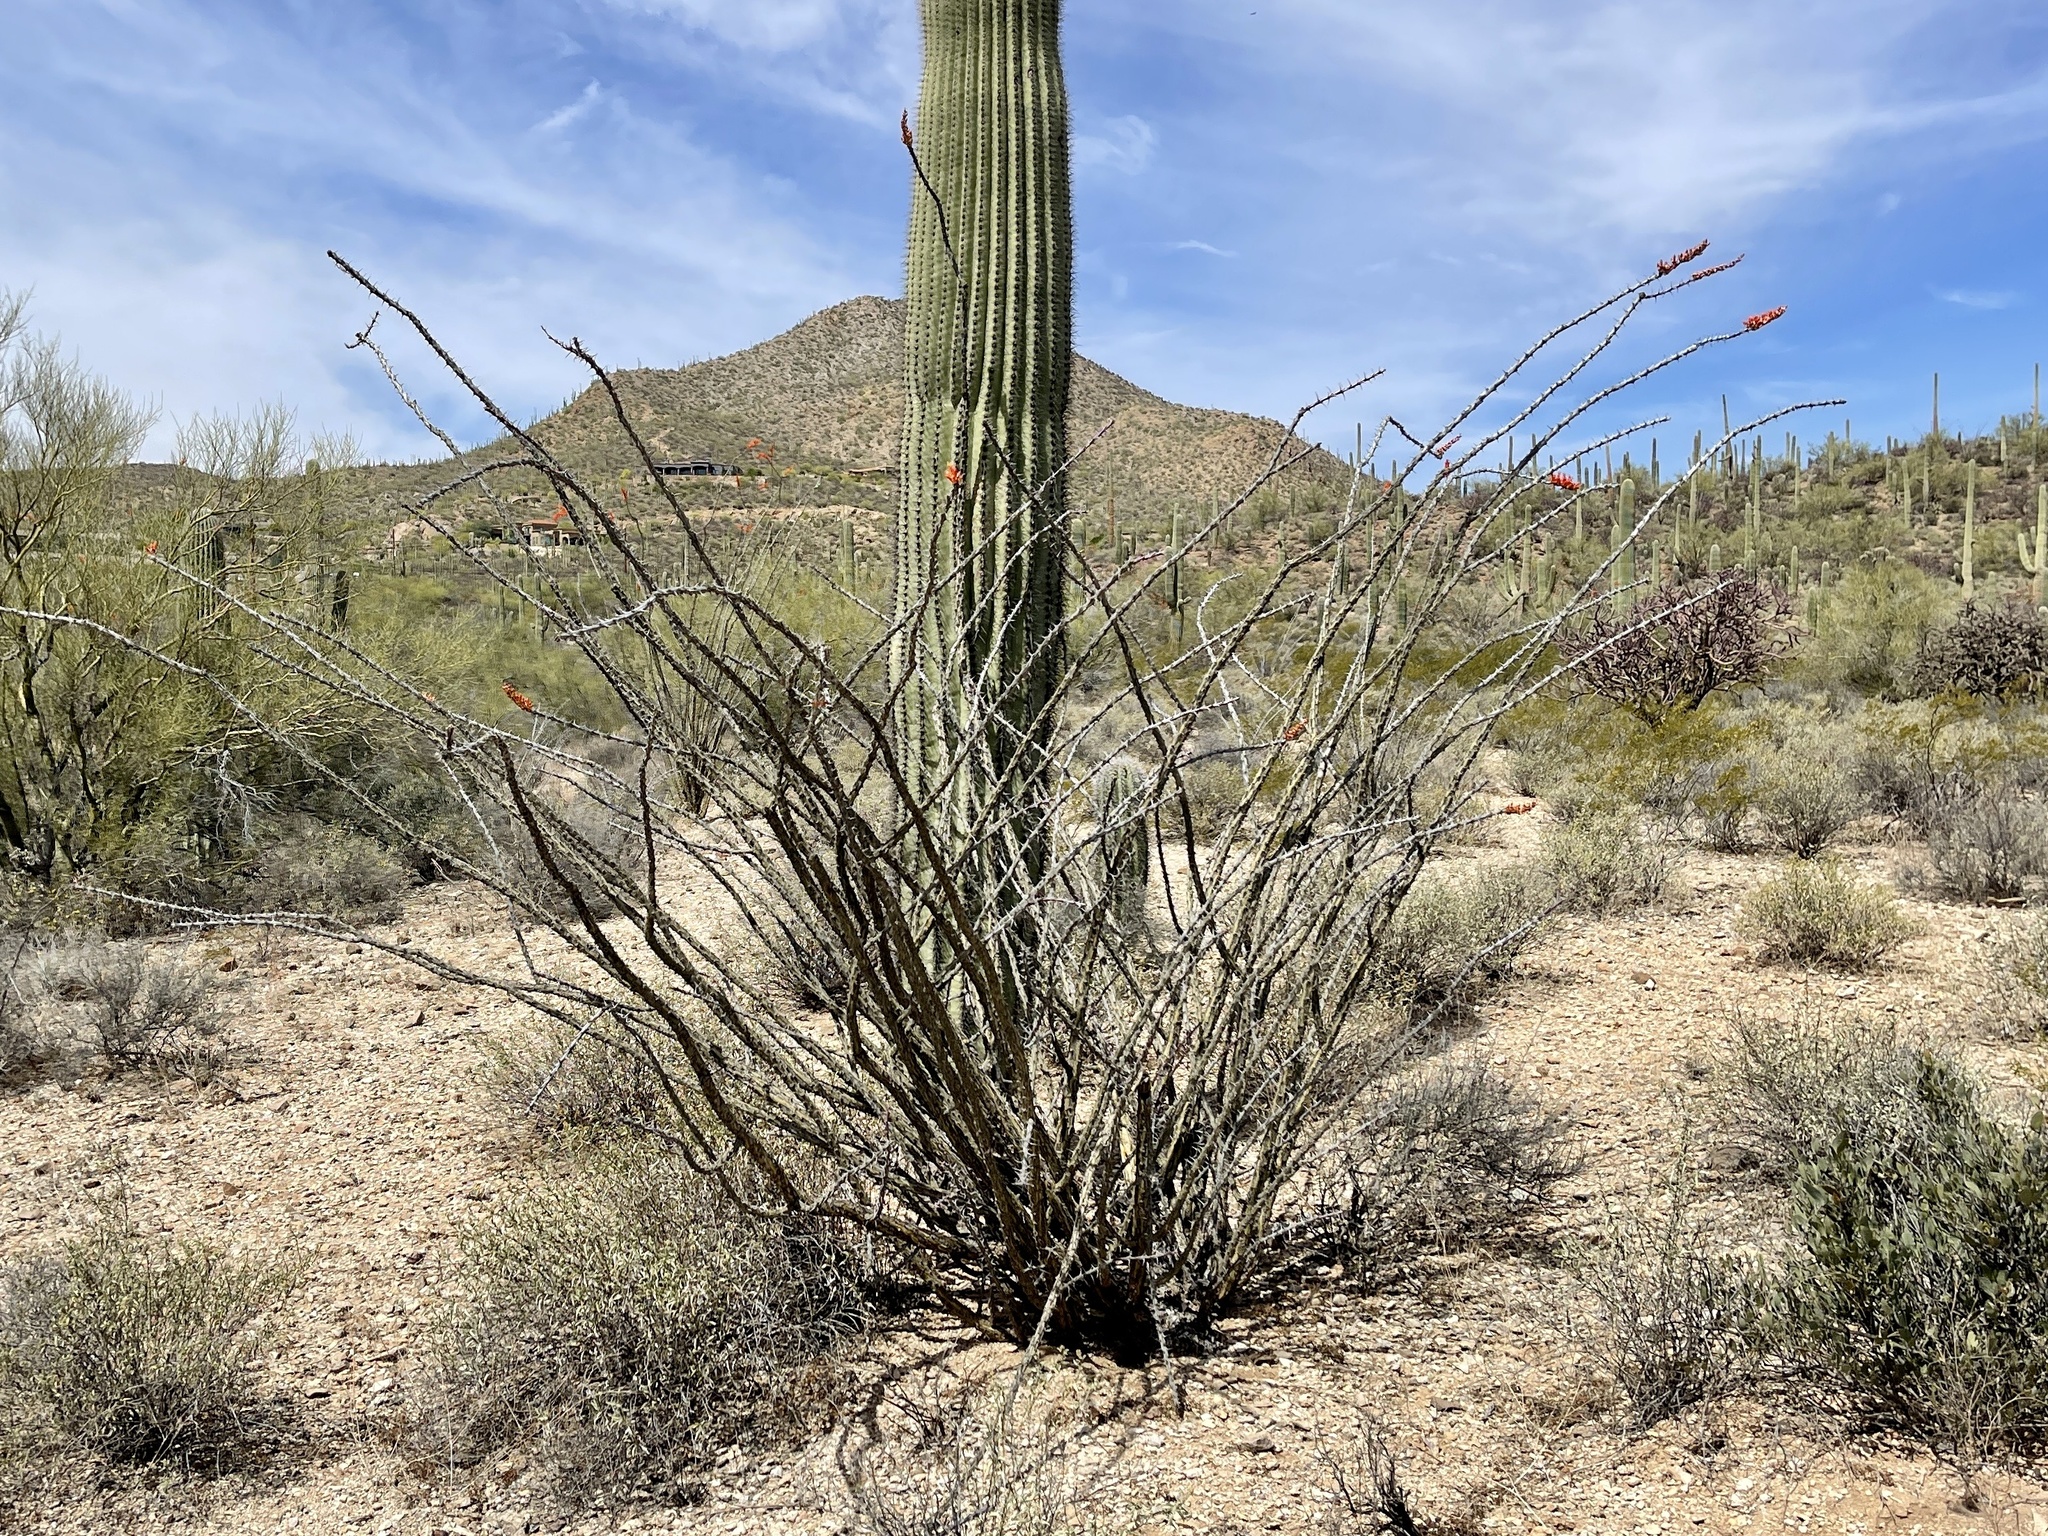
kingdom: Plantae
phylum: Tracheophyta
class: Magnoliopsida
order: Ericales
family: Fouquieriaceae
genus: Fouquieria
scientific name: Fouquieria splendens
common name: Vine-cactus
